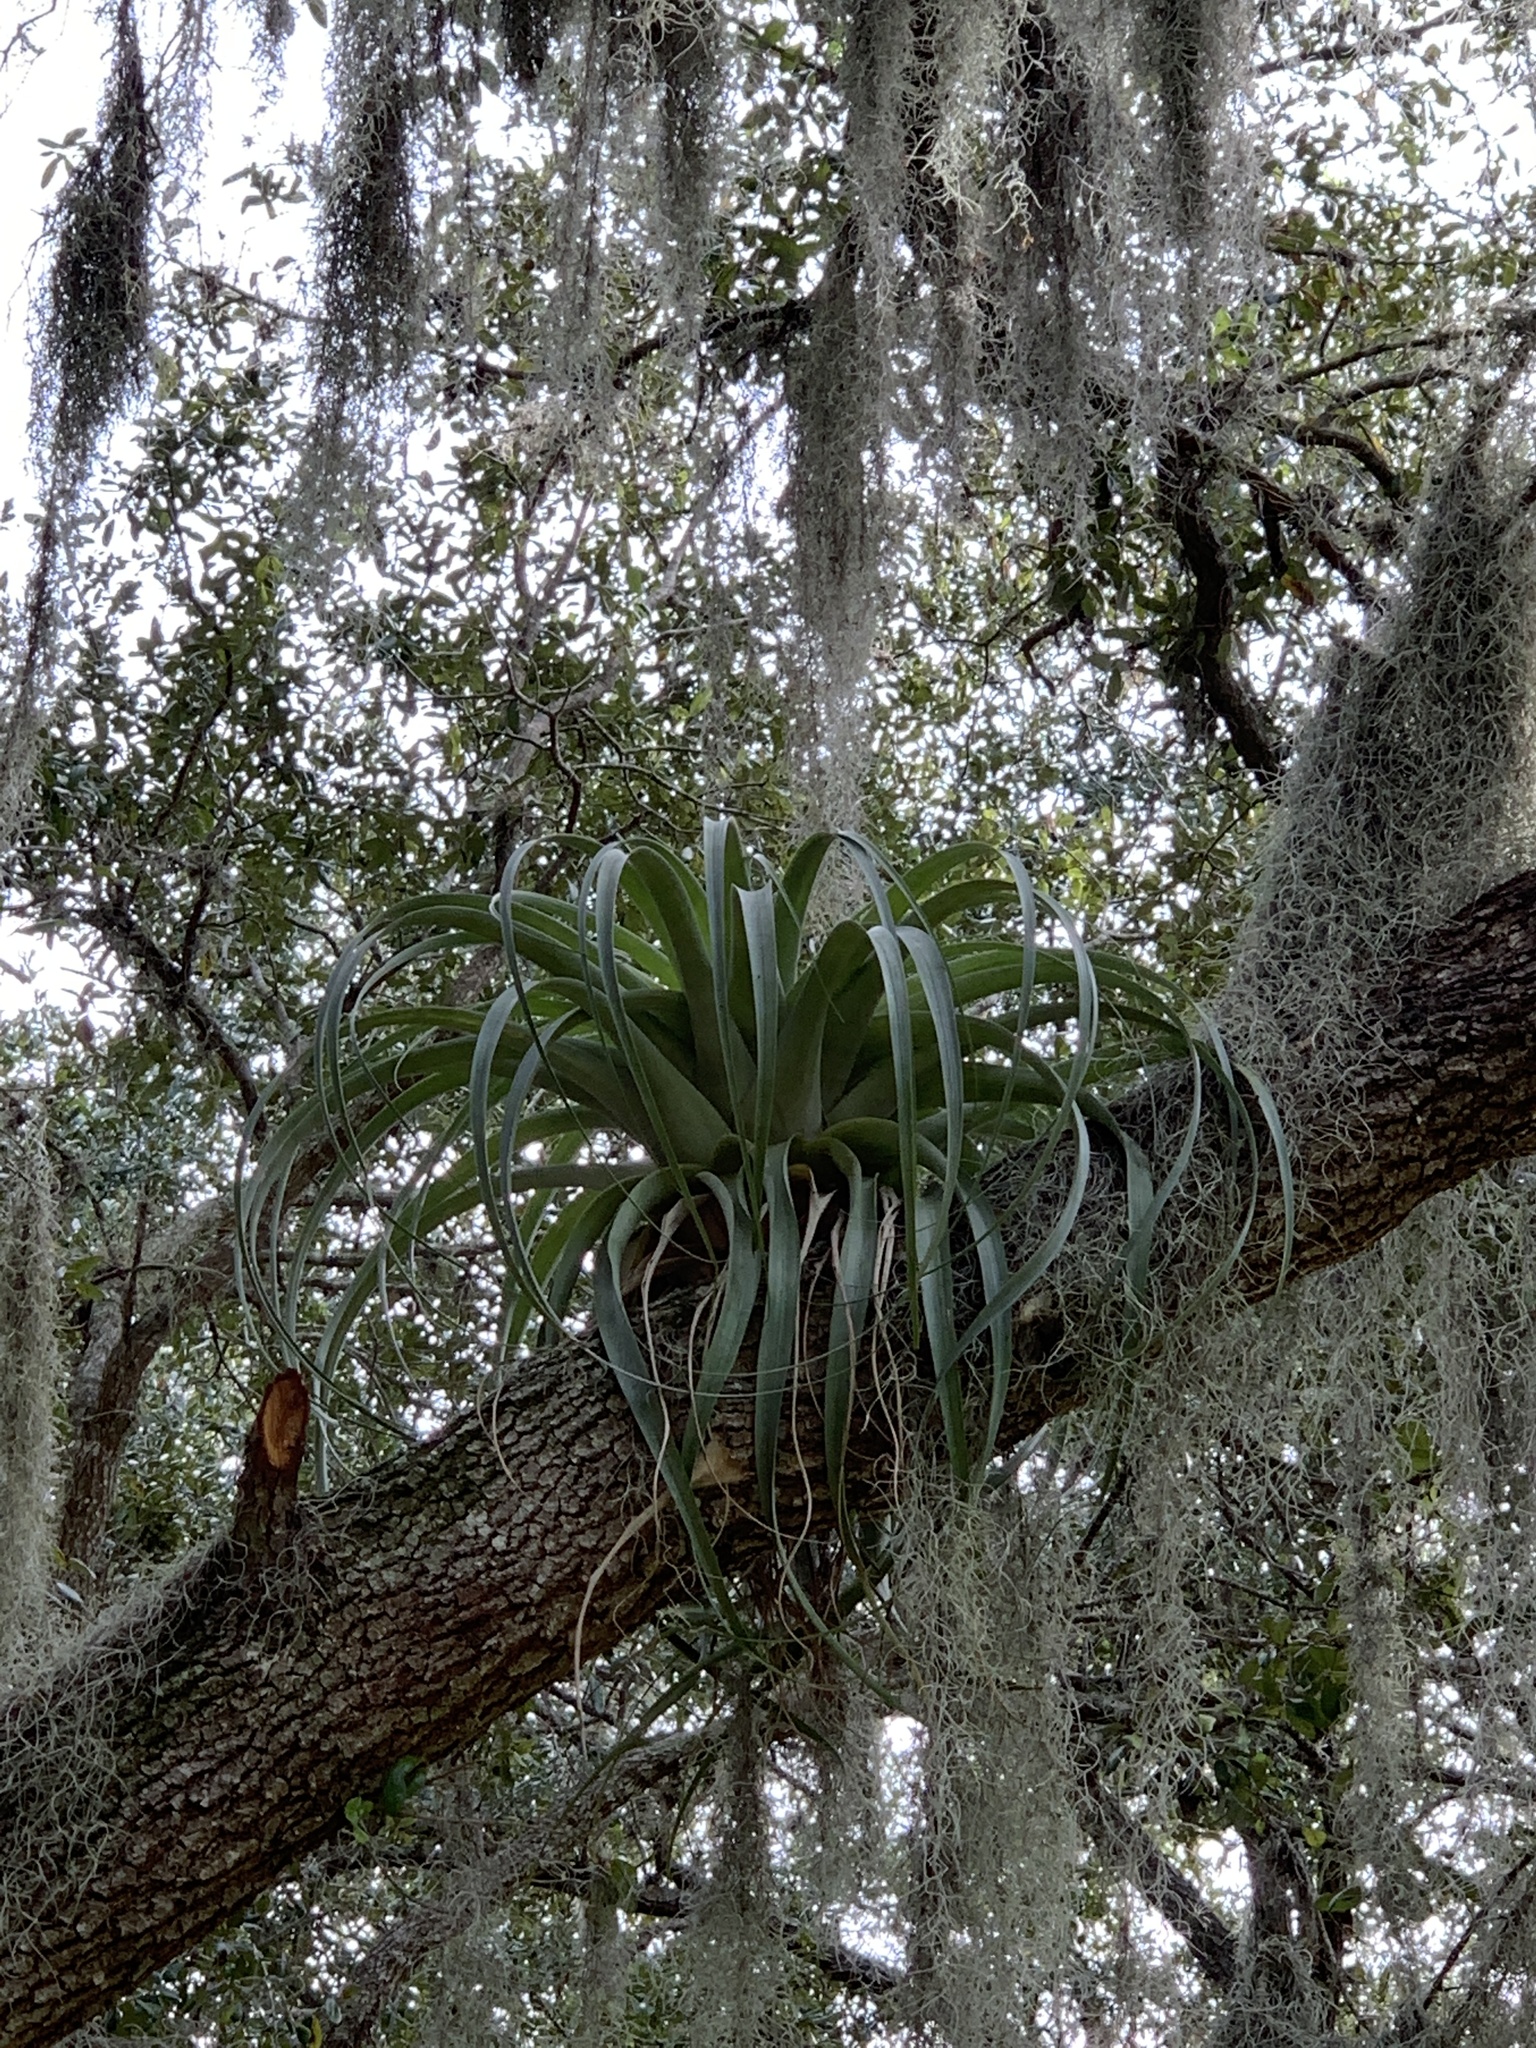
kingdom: Plantae
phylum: Tracheophyta
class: Liliopsida
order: Poales
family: Bromeliaceae
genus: Tillandsia
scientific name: Tillandsia utriculata
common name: Wild pine
